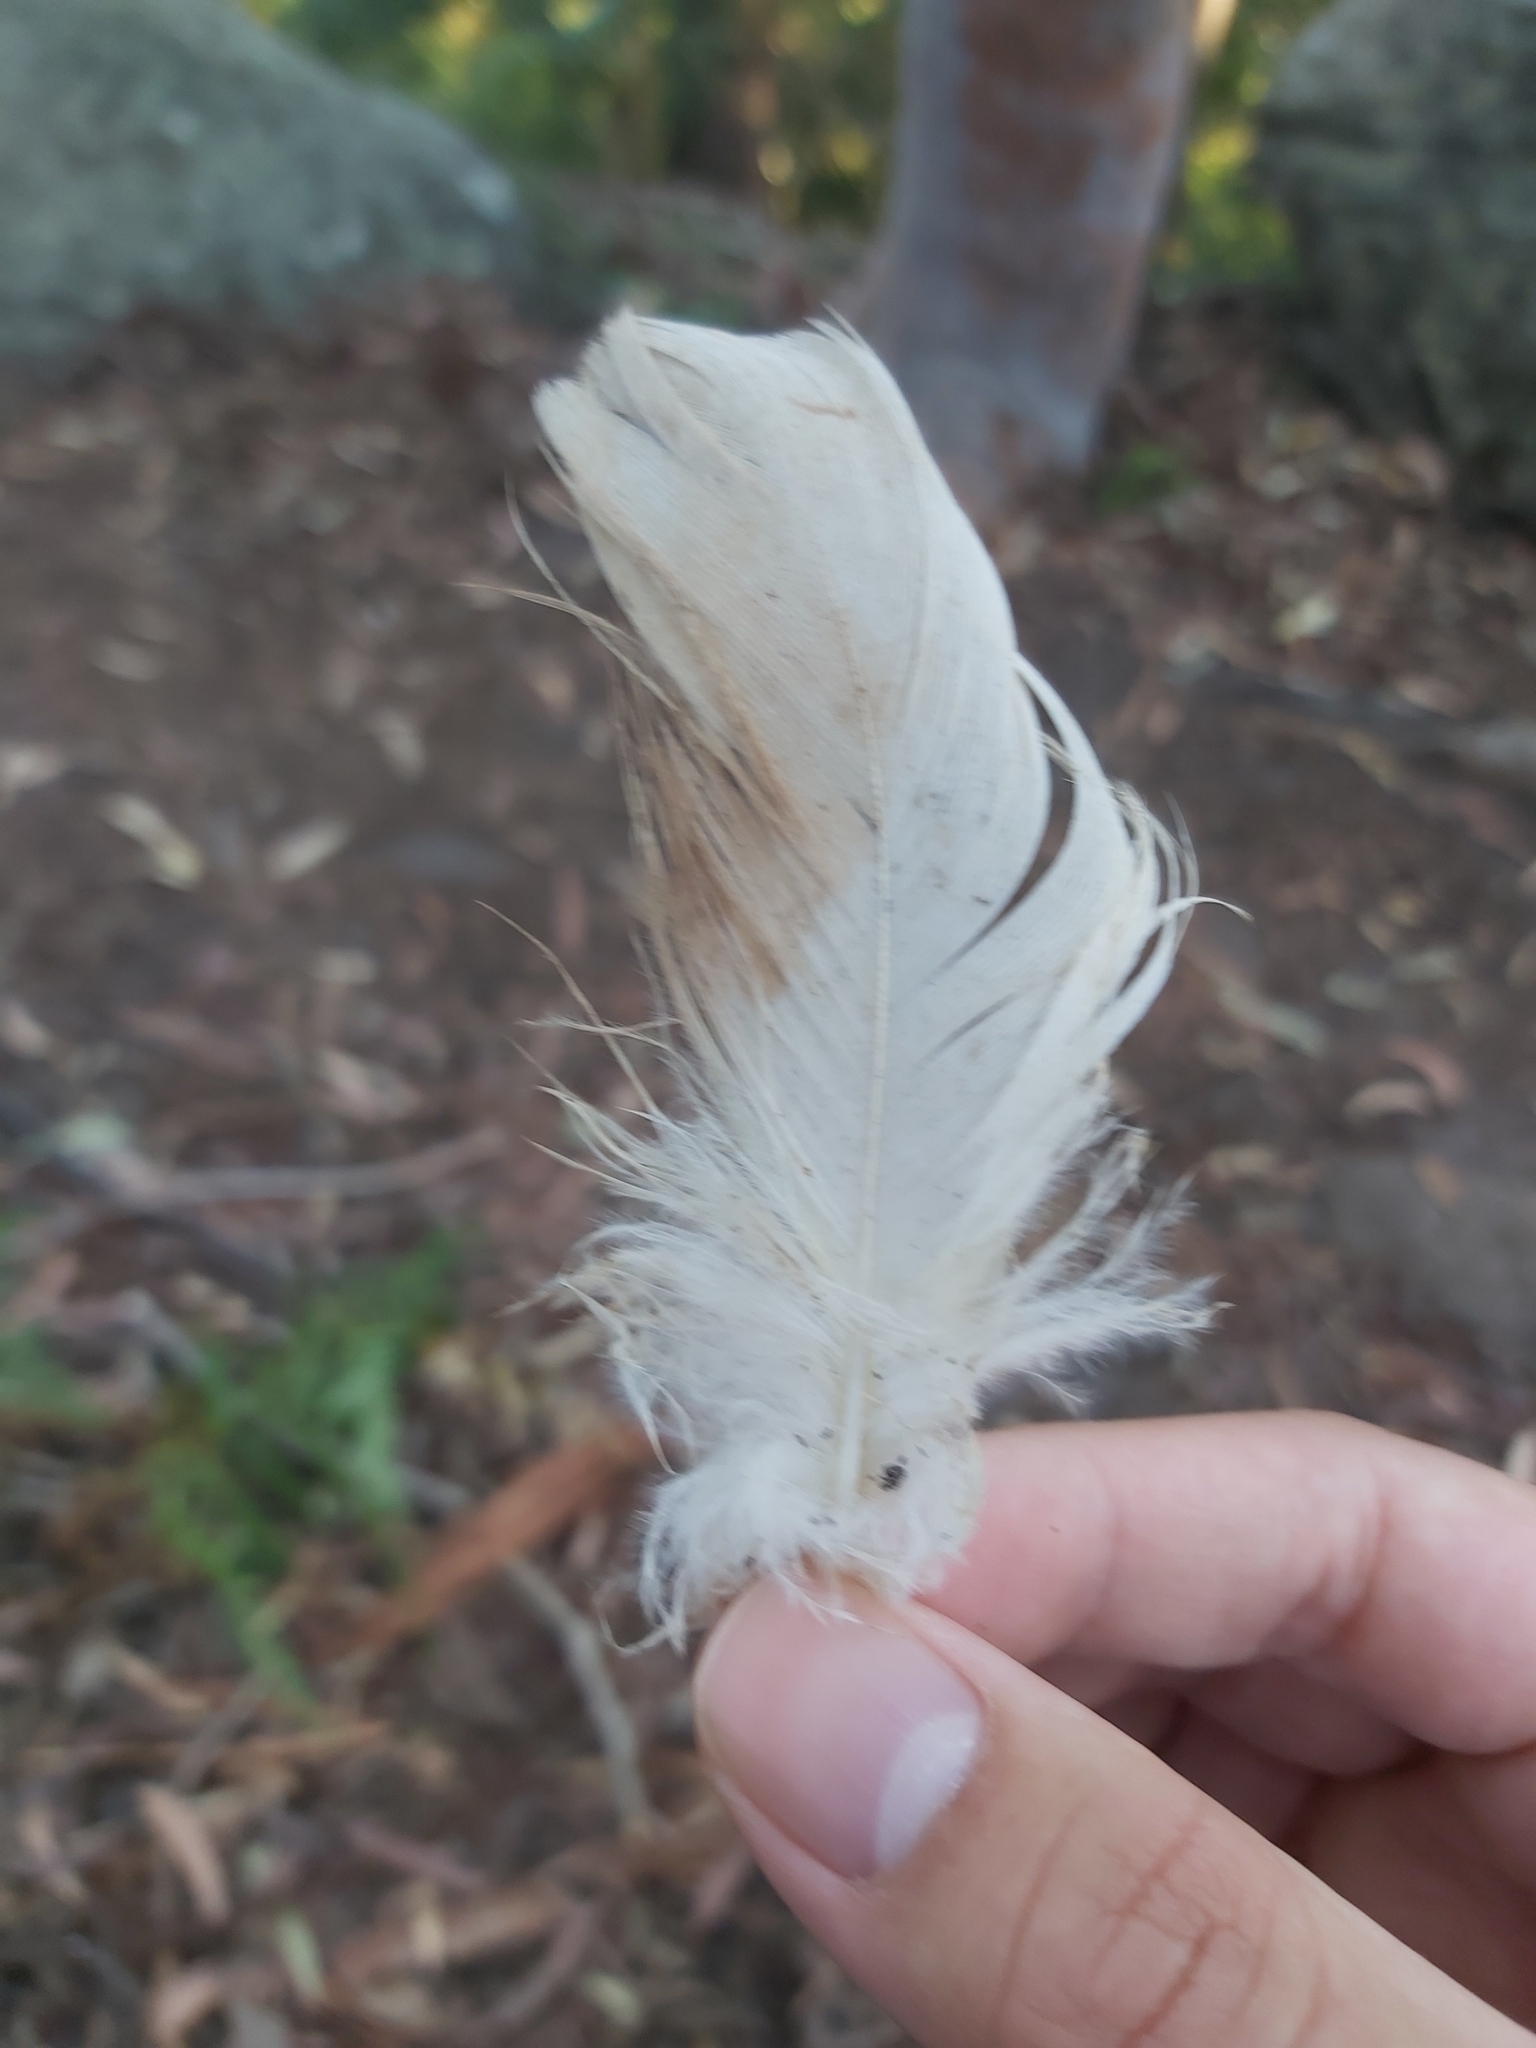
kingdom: Animalia
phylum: Chordata
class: Aves
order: Pelecaniformes
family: Threskiornithidae
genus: Threskiornis
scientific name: Threskiornis molucca
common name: Australian white ibis
